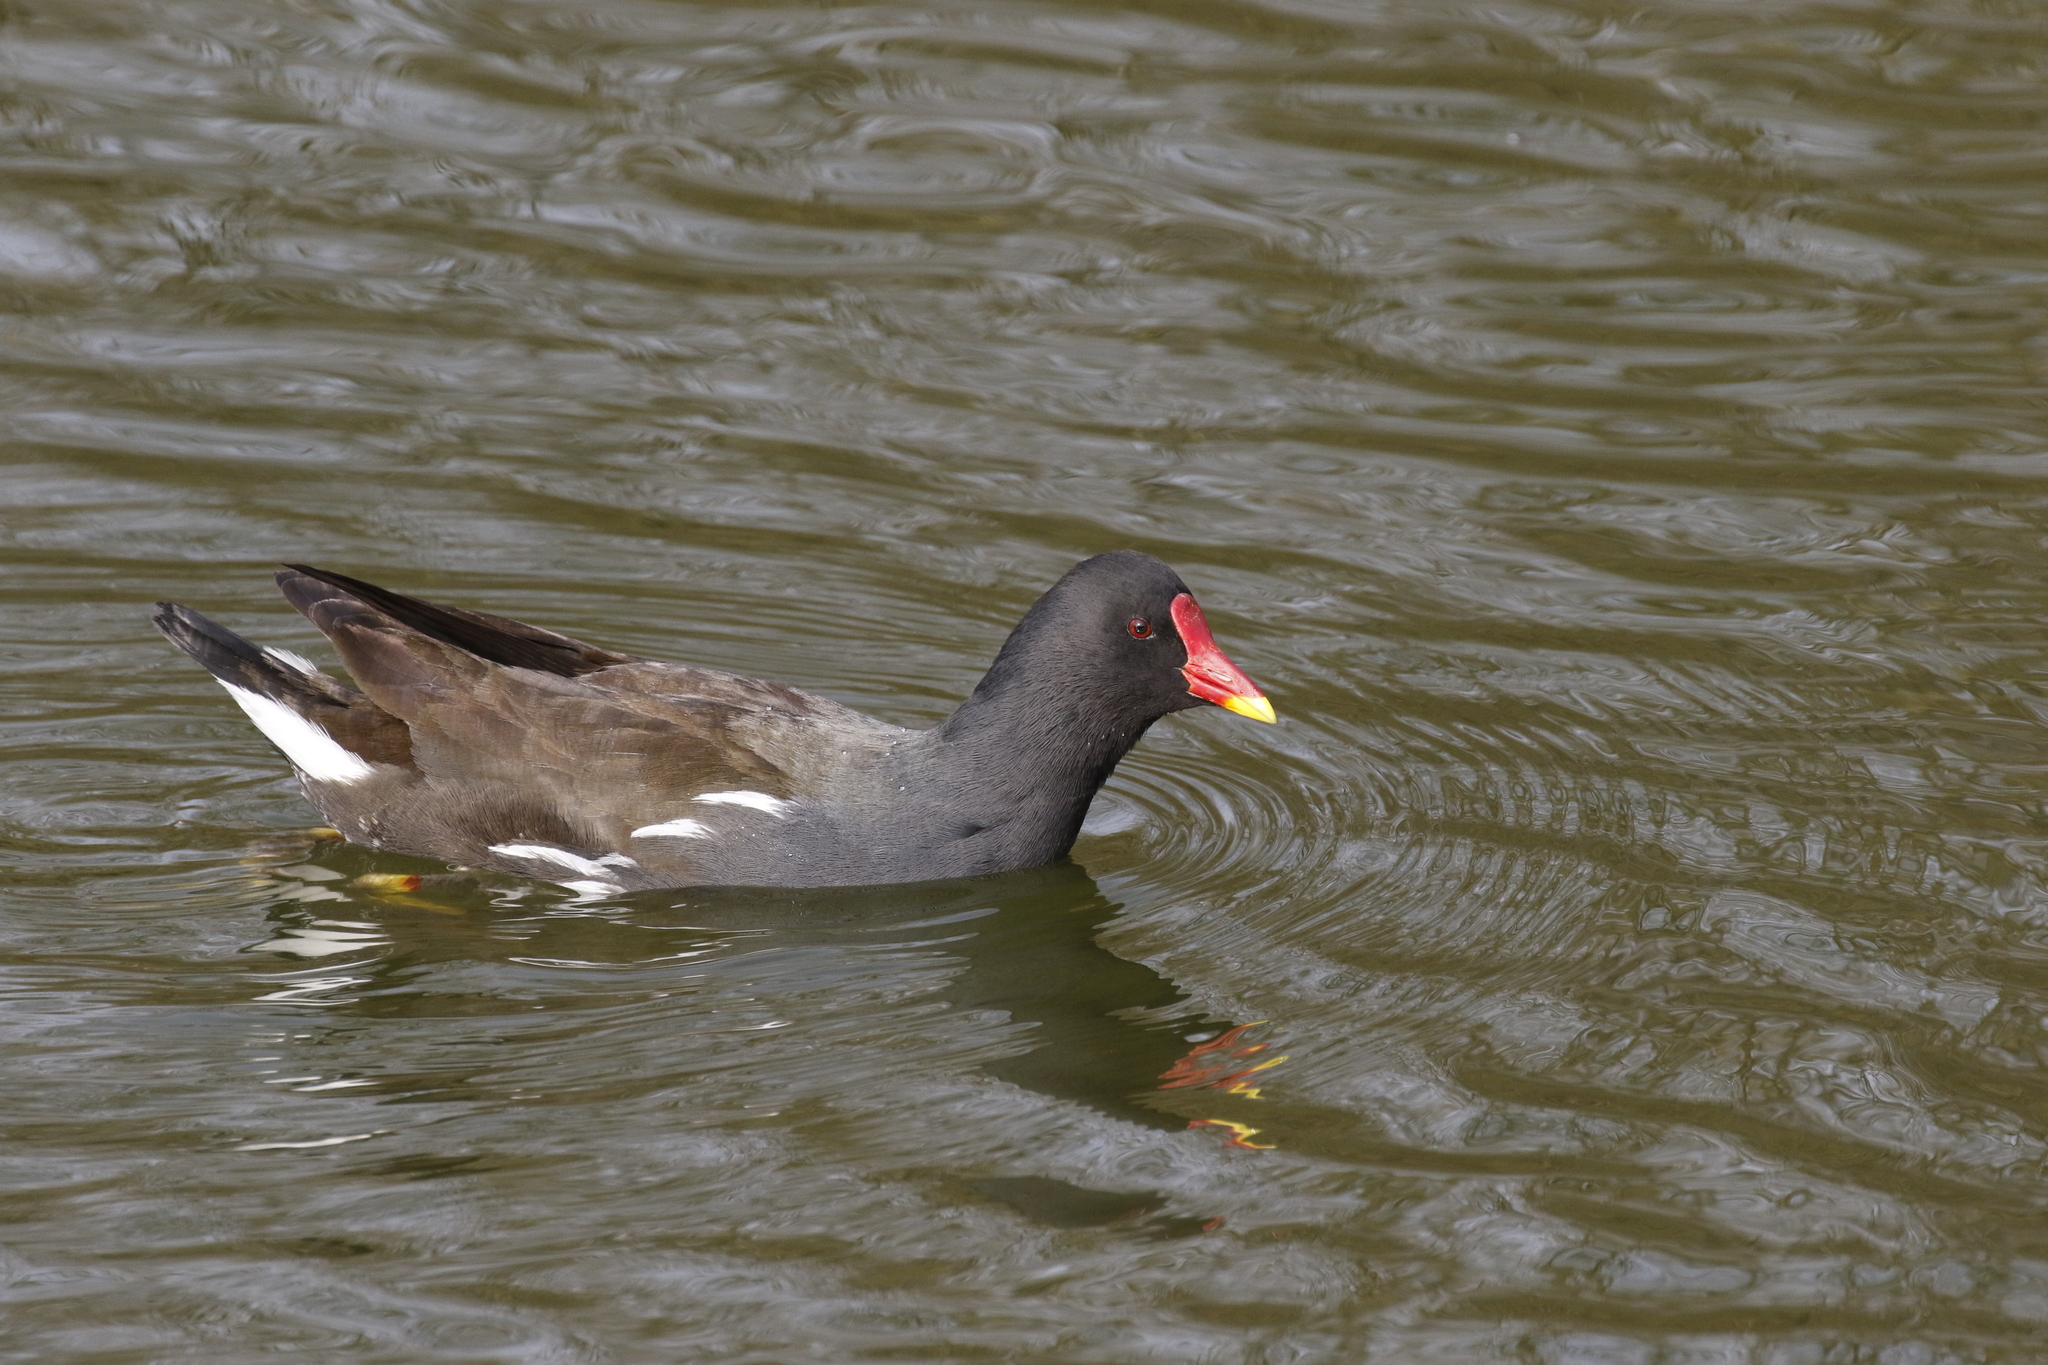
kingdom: Animalia
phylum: Chordata
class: Aves
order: Gruiformes
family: Rallidae
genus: Gallinula
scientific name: Gallinula chloropus
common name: Common moorhen
